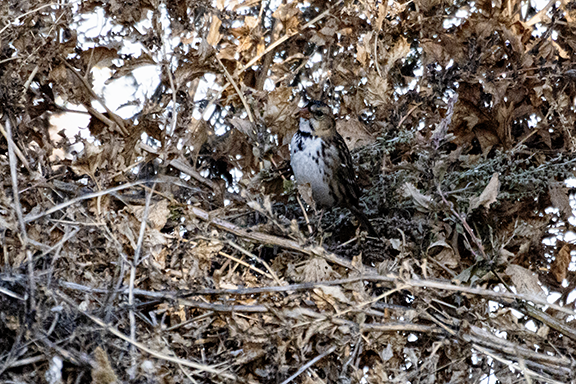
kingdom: Animalia
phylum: Chordata
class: Aves
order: Passeriformes
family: Passerellidae
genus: Zonotrichia
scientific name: Zonotrichia querula
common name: Harris's sparrow
